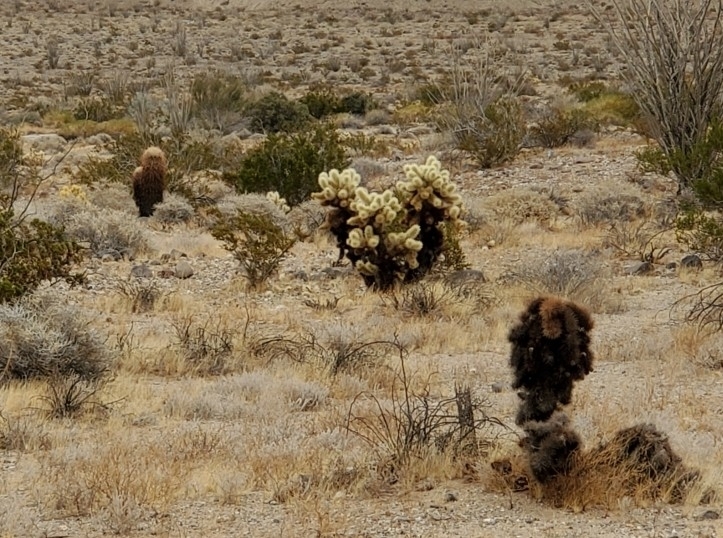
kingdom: Plantae
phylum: Tracheophyta
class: Magnoliopsida
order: Caryophyllales
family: Cactaceae
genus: Cylindropuntia
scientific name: Cylindropuntia fosbergii
